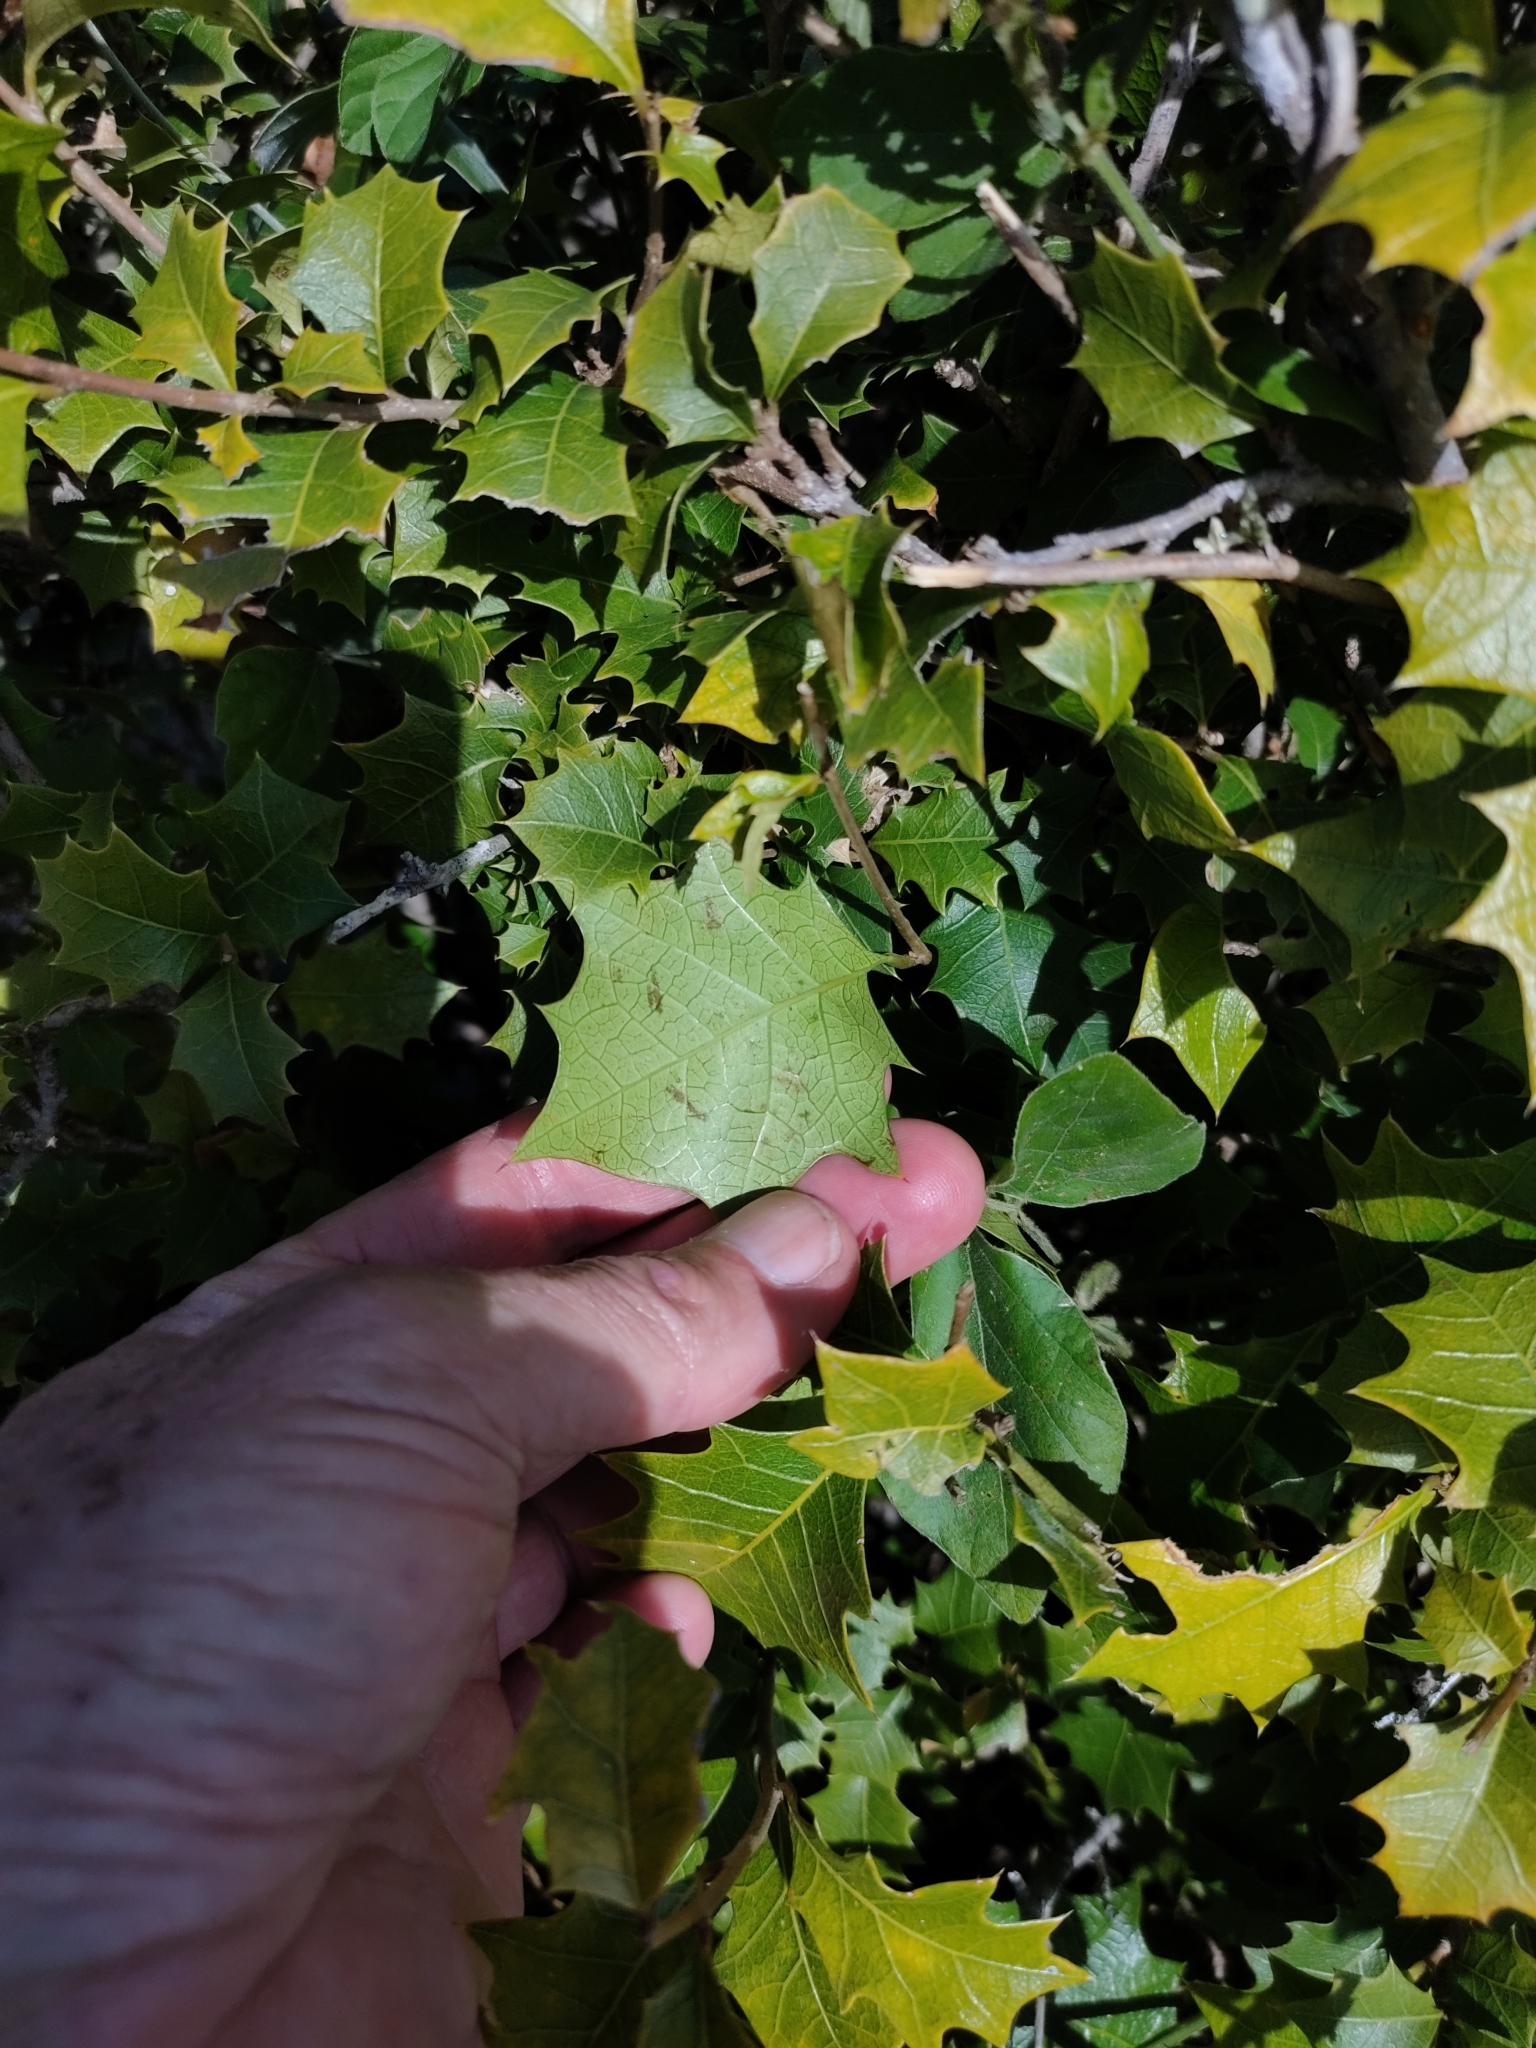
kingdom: Plantae
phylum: Tracheophyta
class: Magnoliopsida
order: Malpighiales
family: Euphorbiaceae
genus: Alchornea
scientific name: Alchornea ilicifolia
